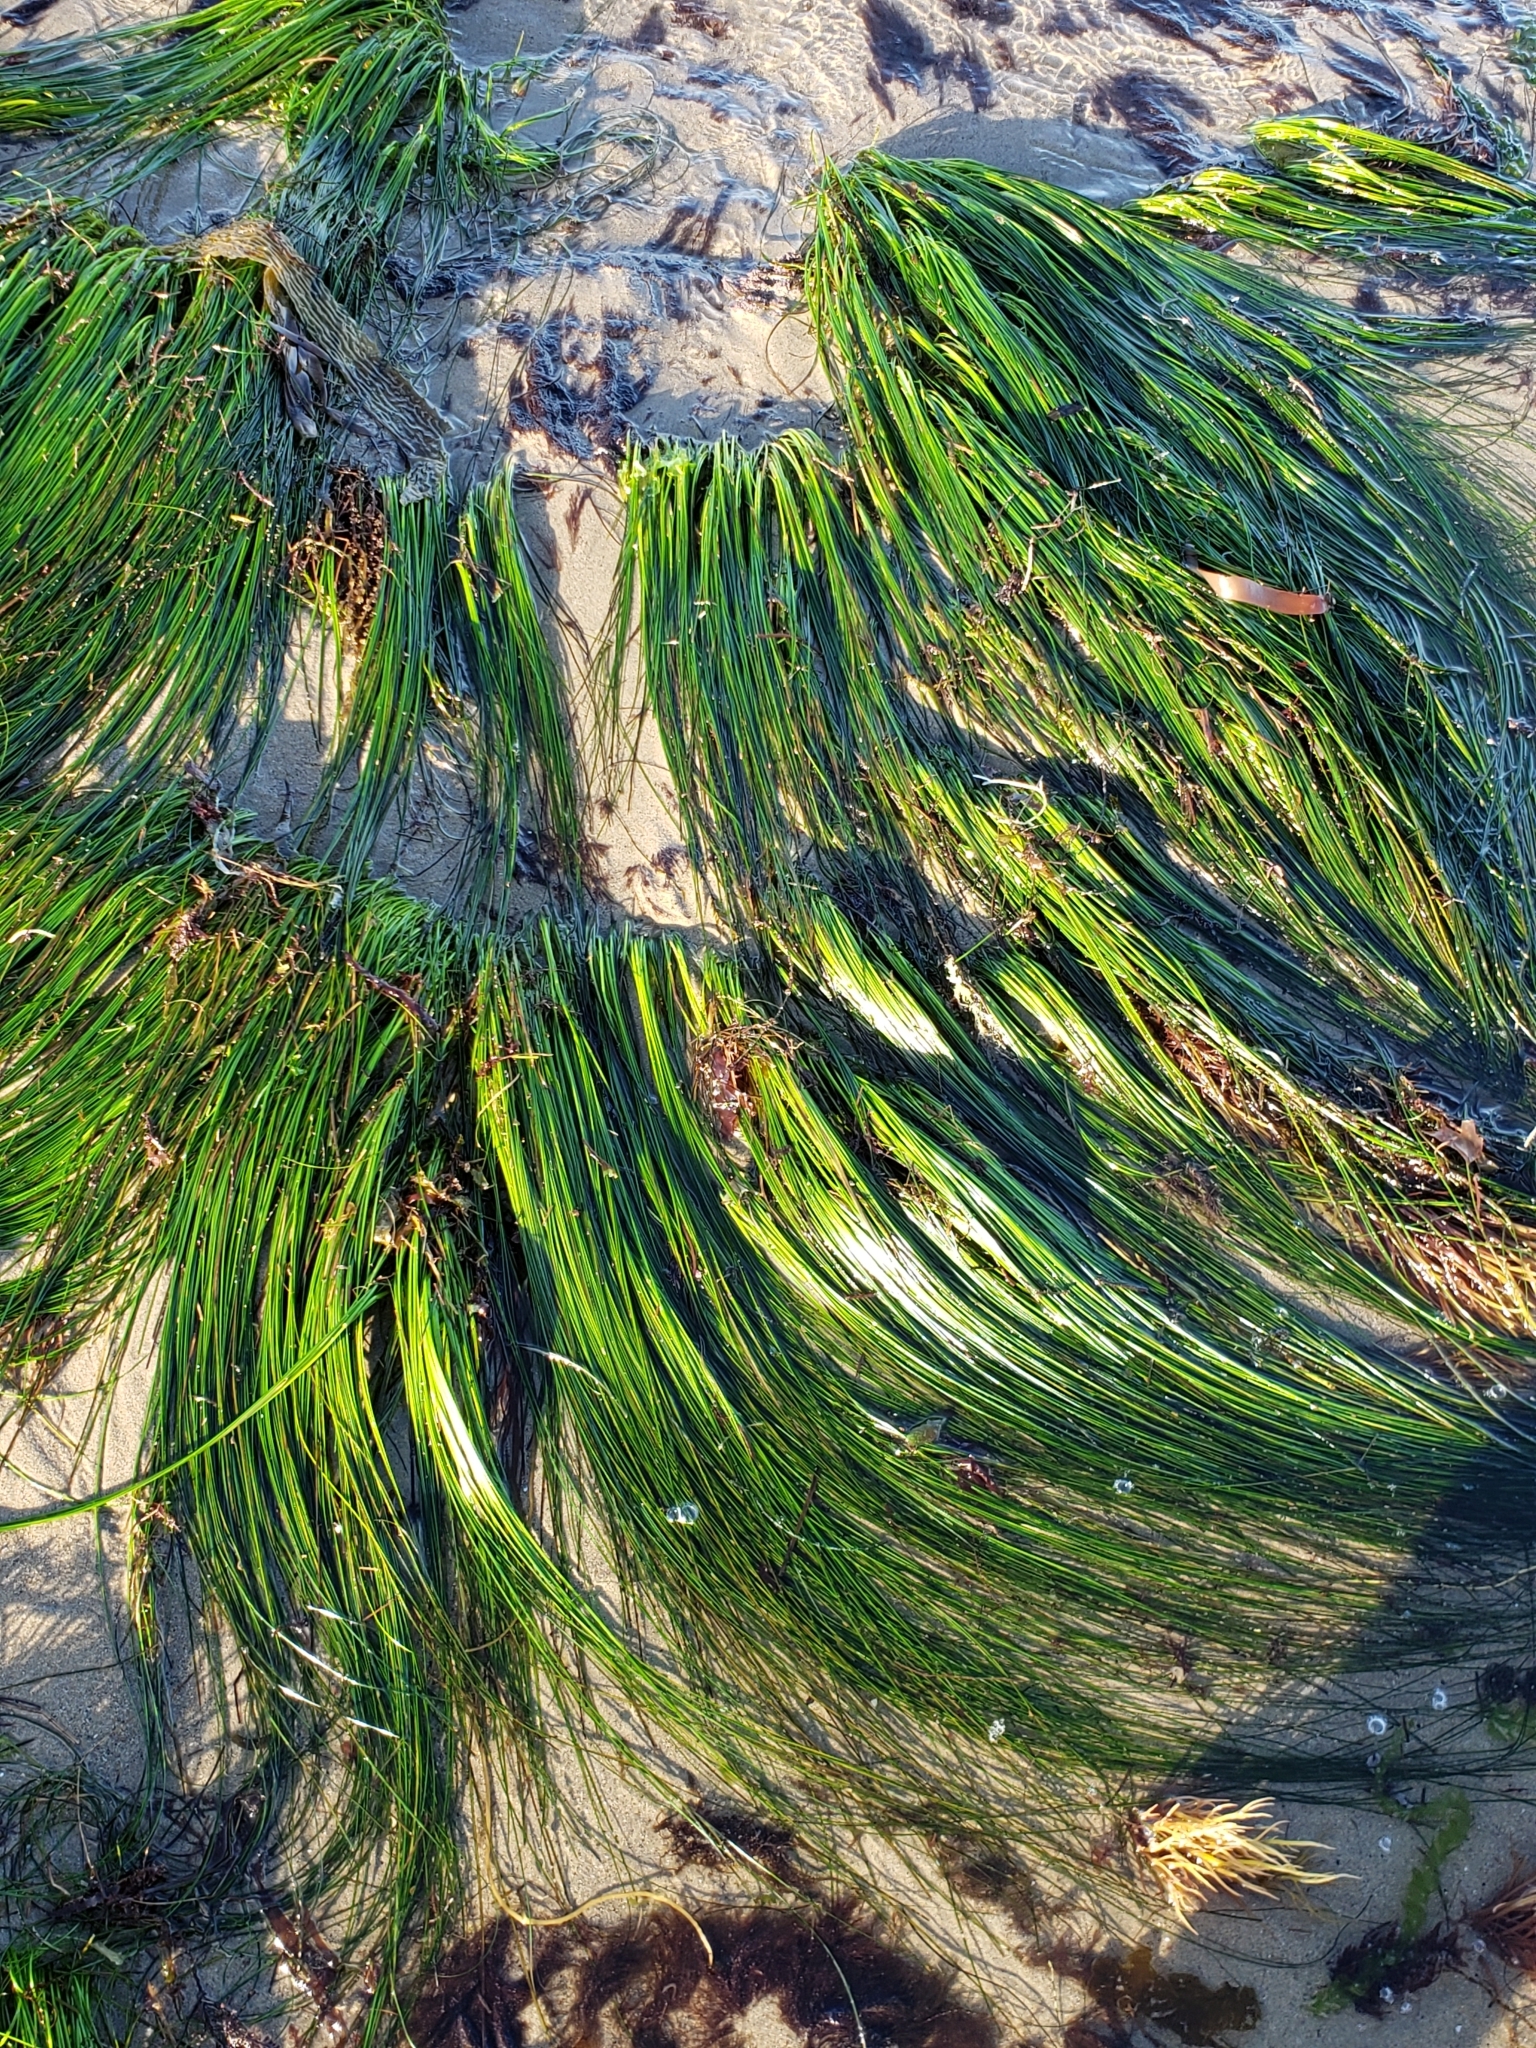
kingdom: Plantae
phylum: Tracheophyta
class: Liliopsida
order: Alismatales
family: Zosteraceae
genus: Phyllospadix
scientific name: Phyllospadix torreyi
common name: Surfgrass
